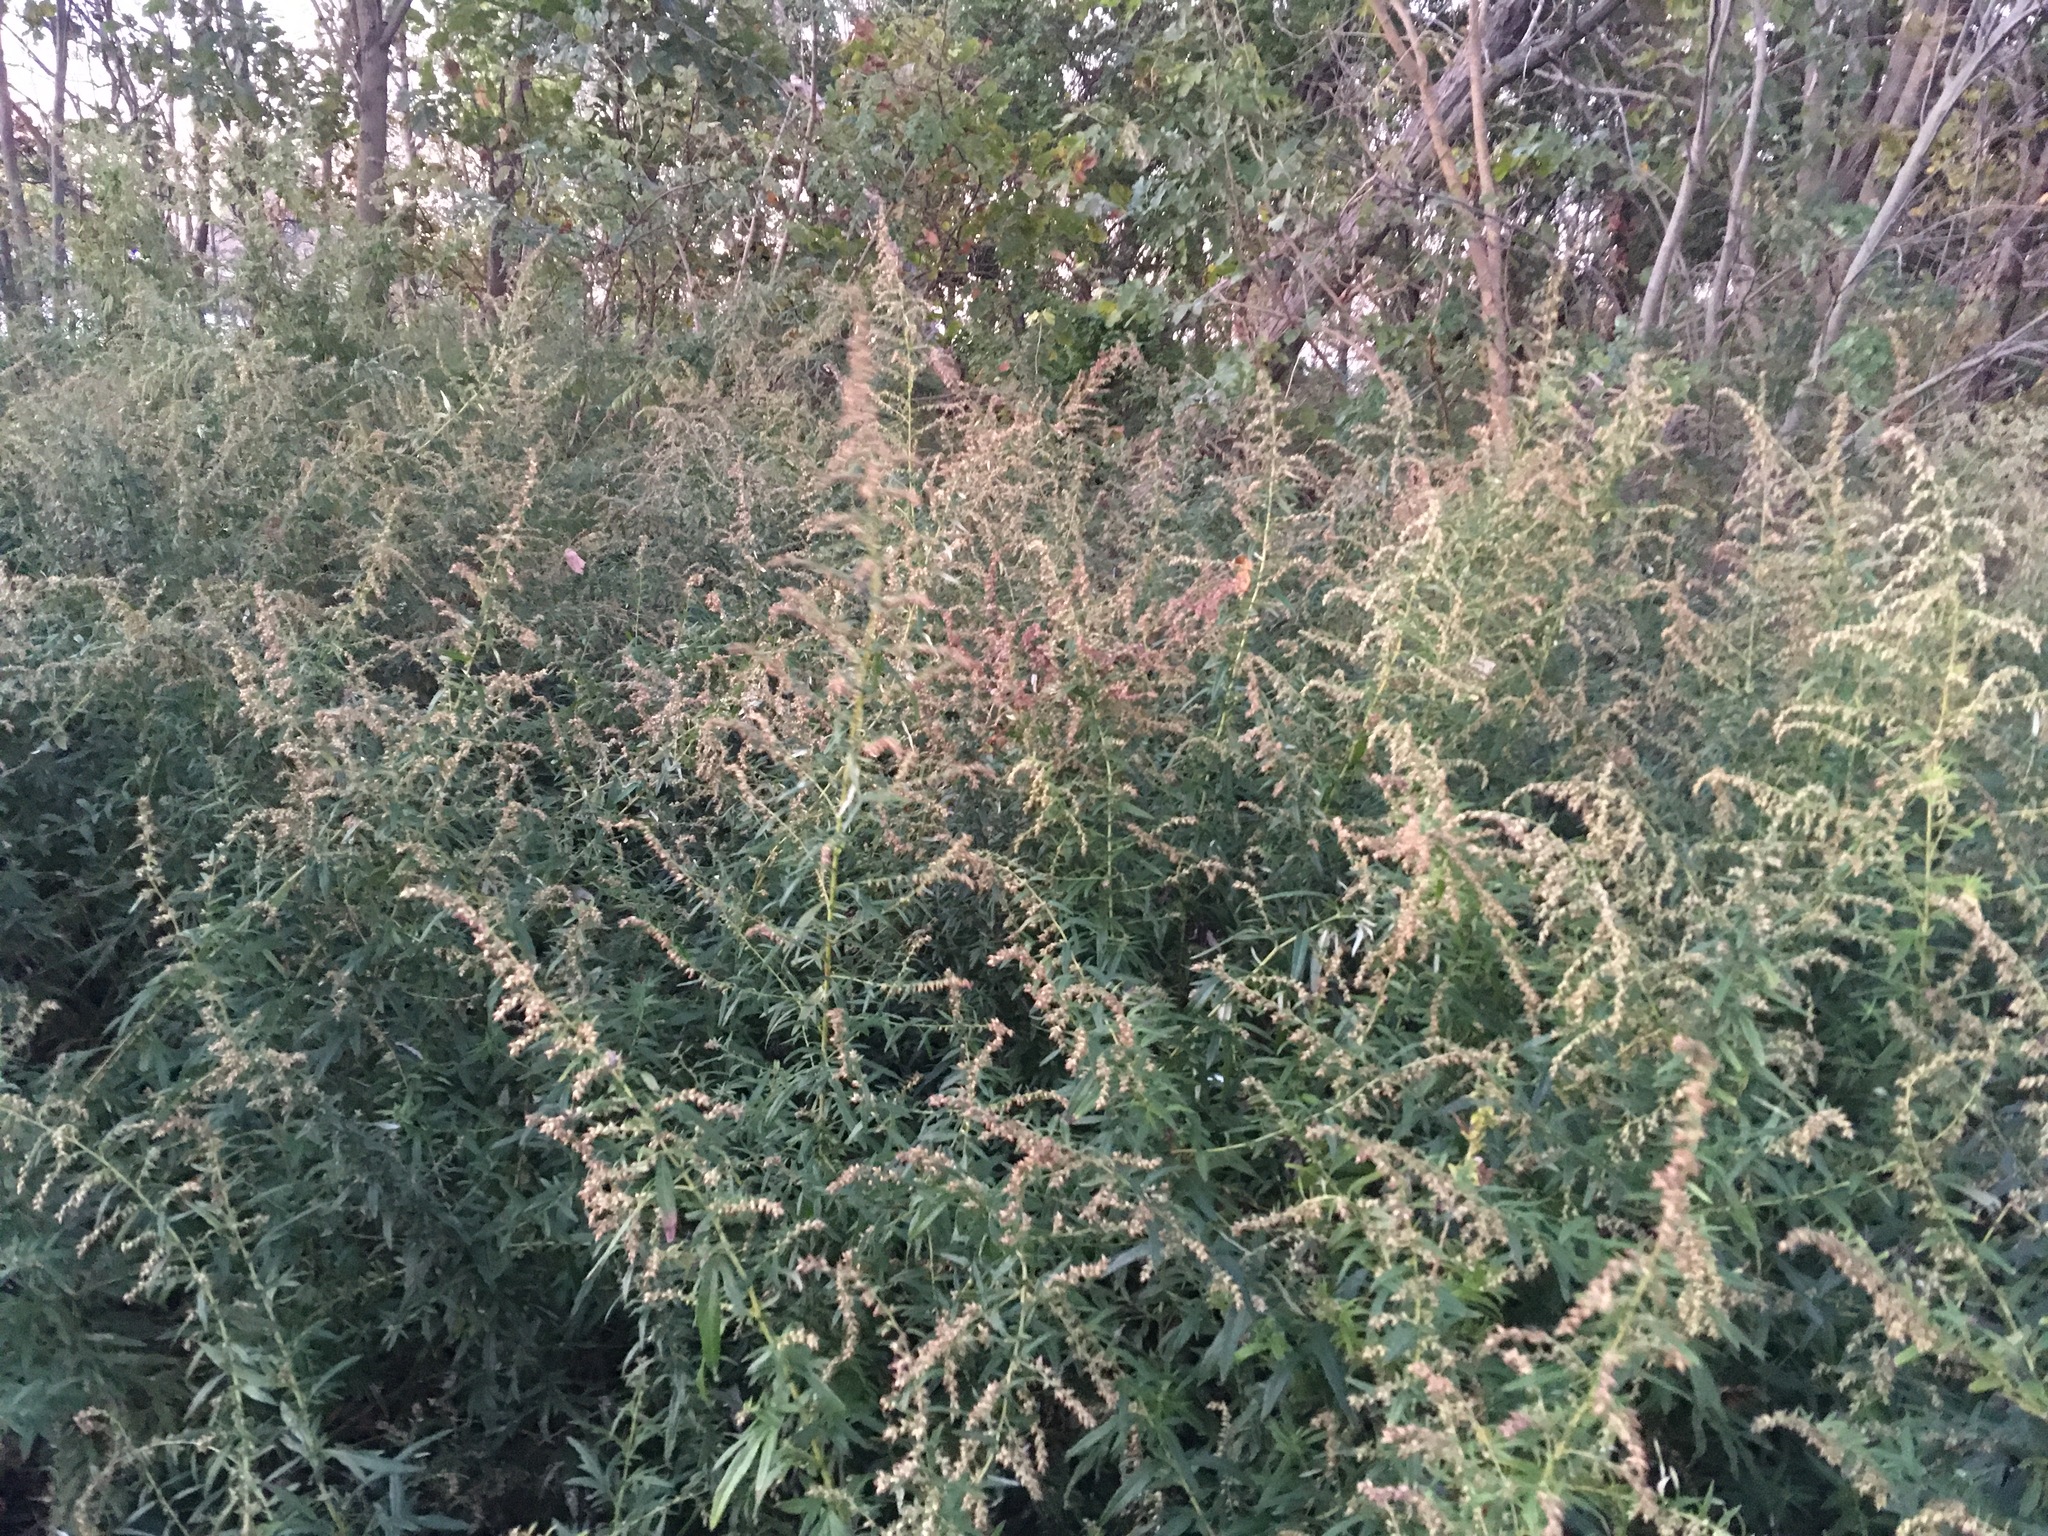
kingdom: Plantae
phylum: Tracheophyta
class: Magnoliopsida
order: Asterales
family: Asteraceae
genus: Artemisia
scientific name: Artemisia vulgaris
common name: Mugwort
